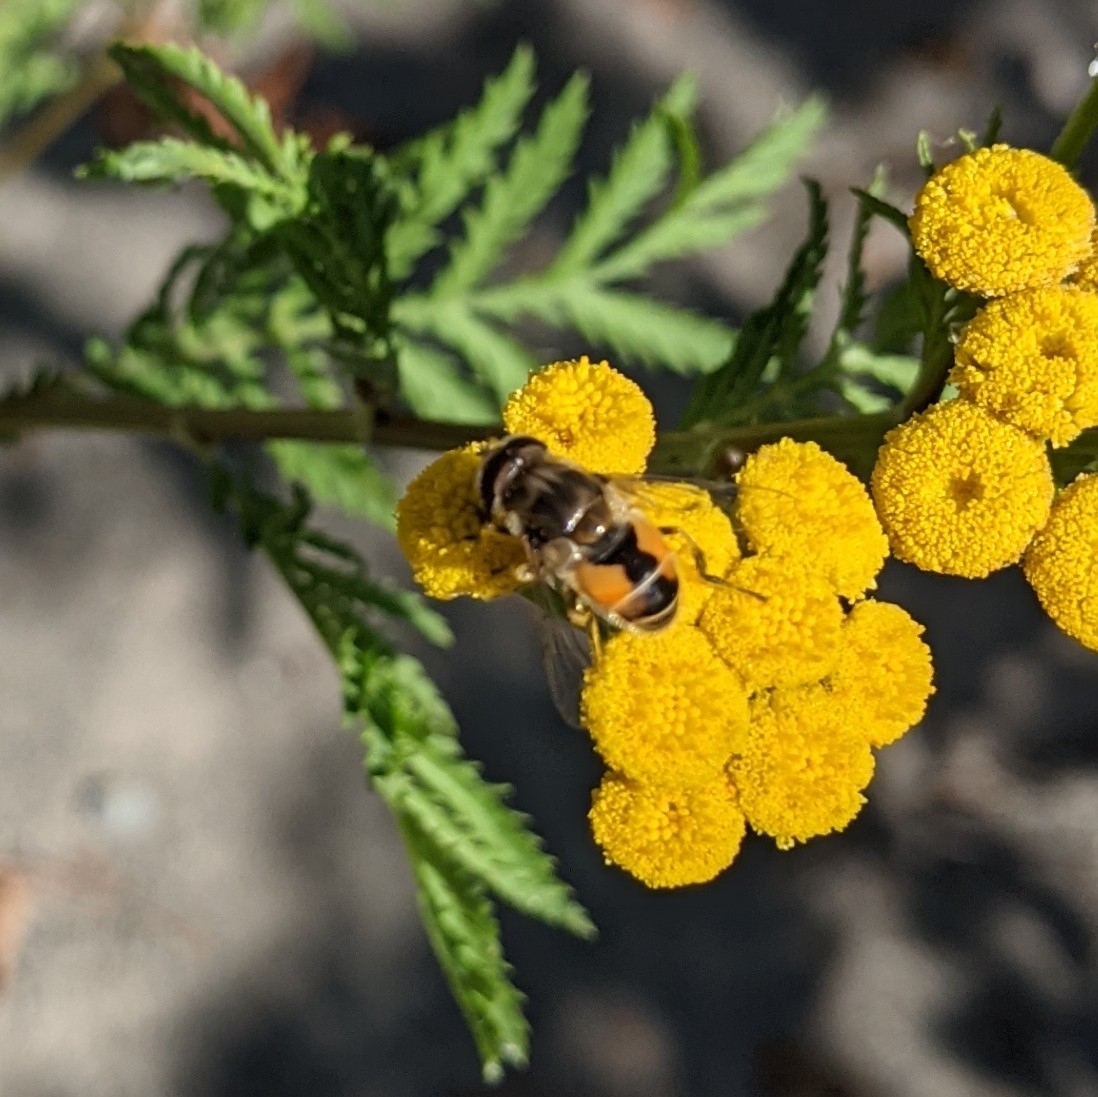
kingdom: Animalia
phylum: Arthropoda
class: Insecta
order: Diptera
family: Syrphidae
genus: Eristalis
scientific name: Eristalis arbustorum
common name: Hover fly
